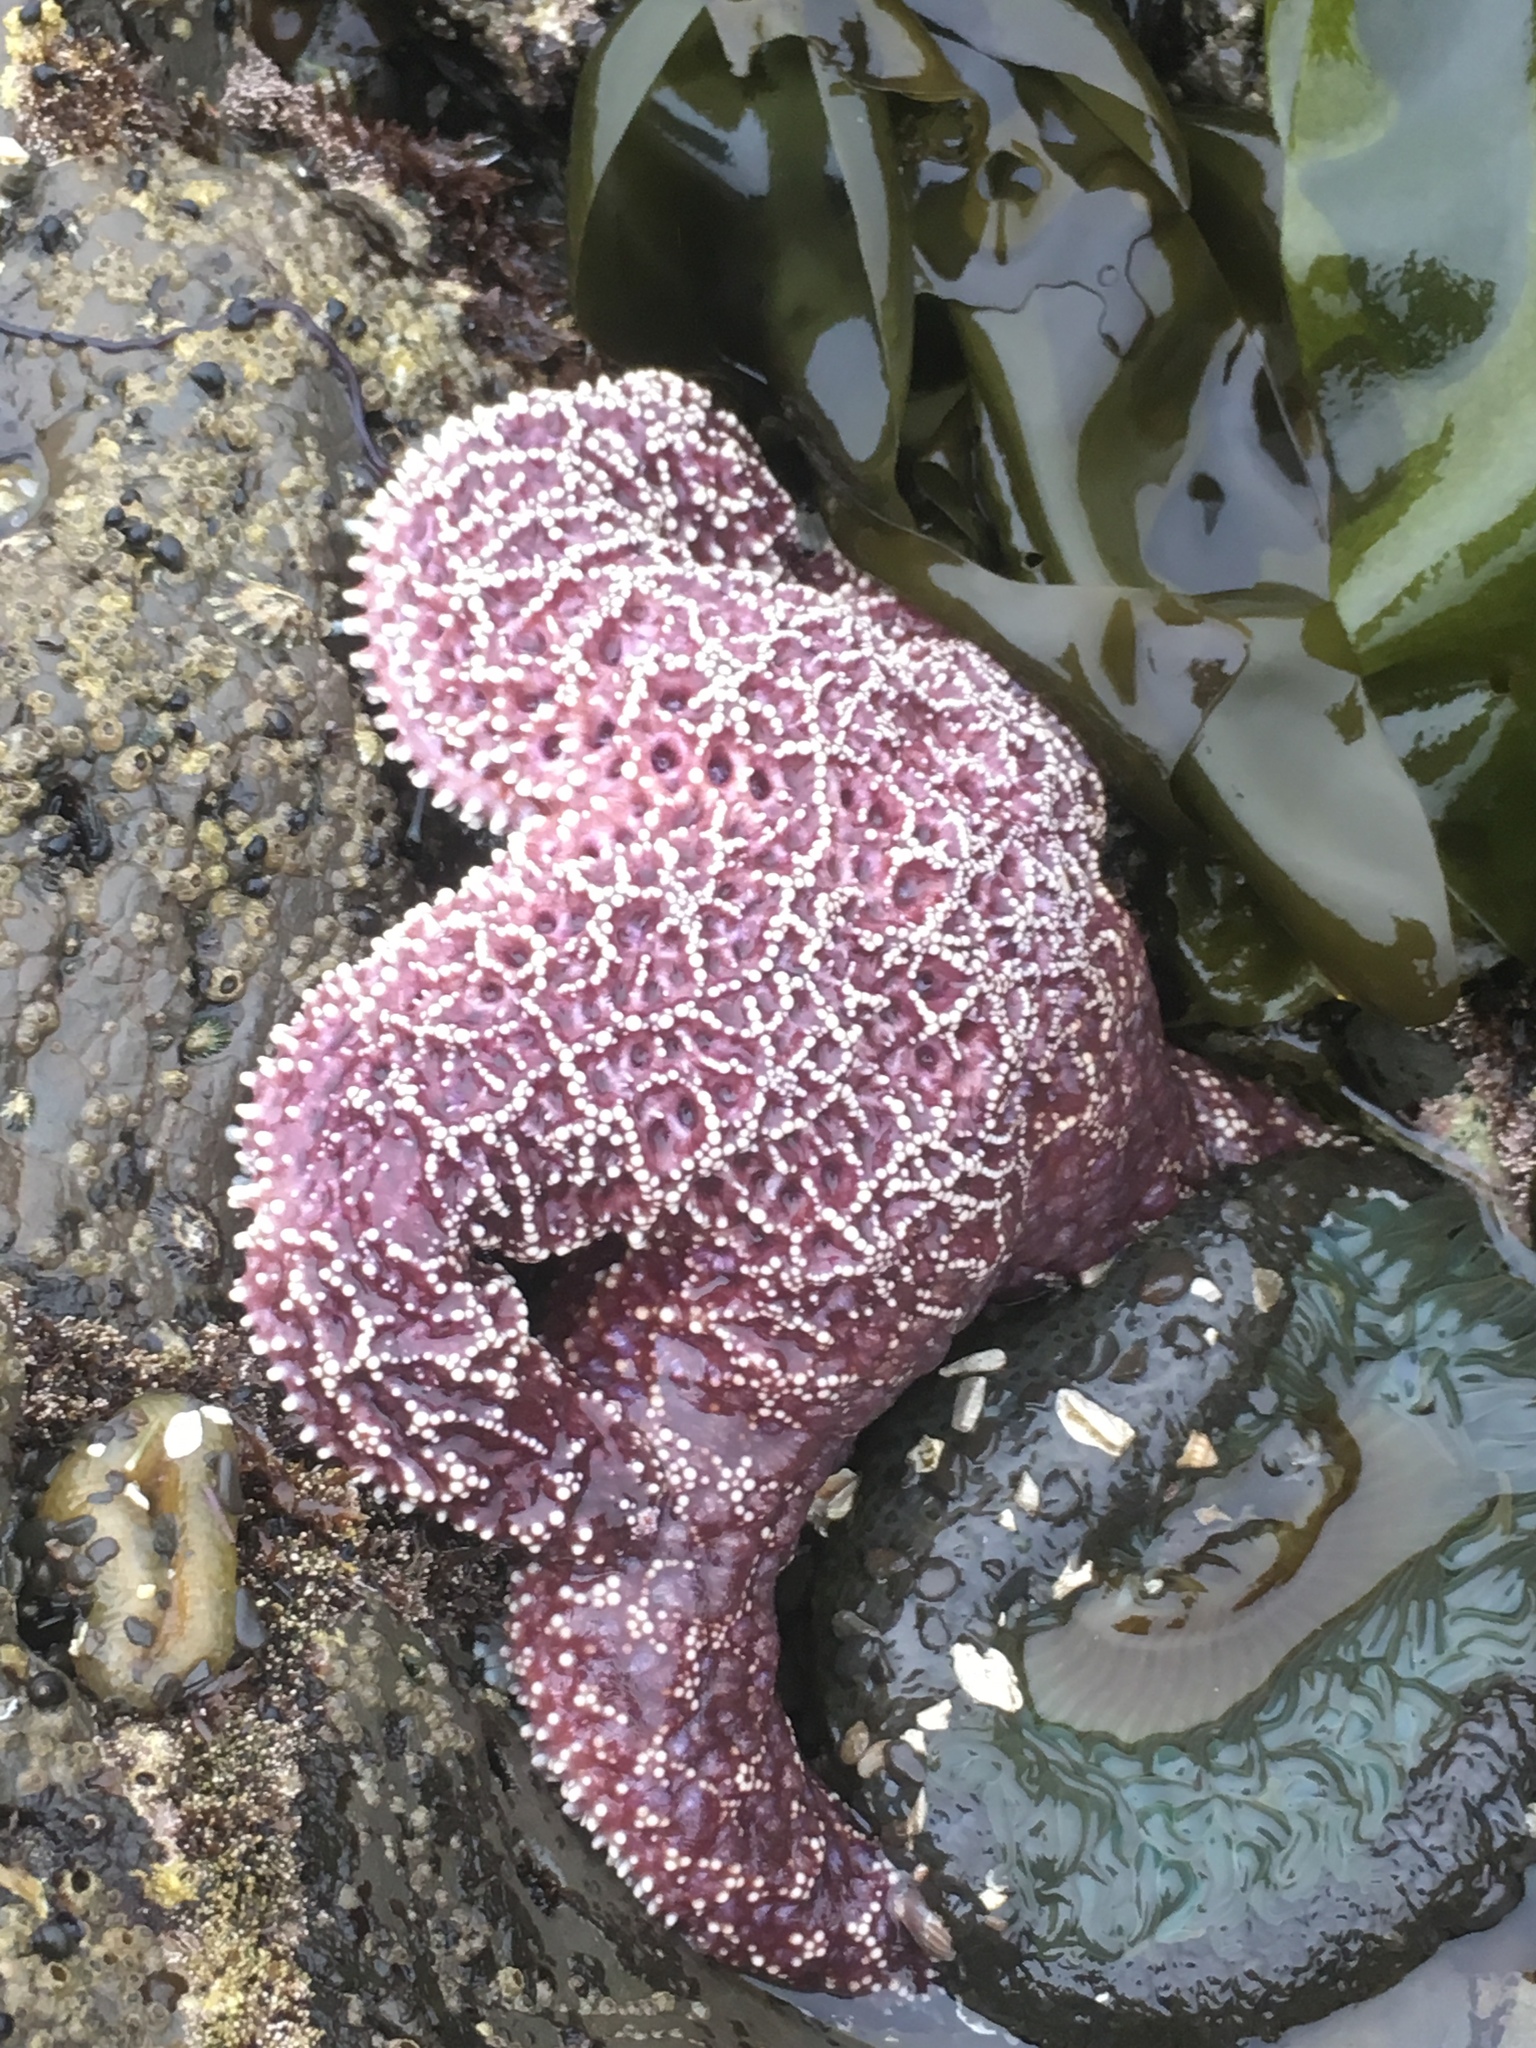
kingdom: Animalia
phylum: Echinodermata
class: Asteroidea
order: Forcipulatida
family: Asteriidae
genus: Pisaster
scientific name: Pisaster ochraceus
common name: Ochre stars
